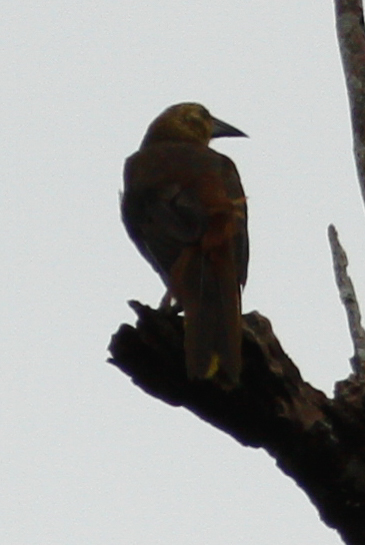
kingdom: Animalia
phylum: Chordata
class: Aves
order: Passeriformes
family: Icteridae
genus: Psarocolius
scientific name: Psarocolius angustifrons
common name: Russet-backed oropendola
